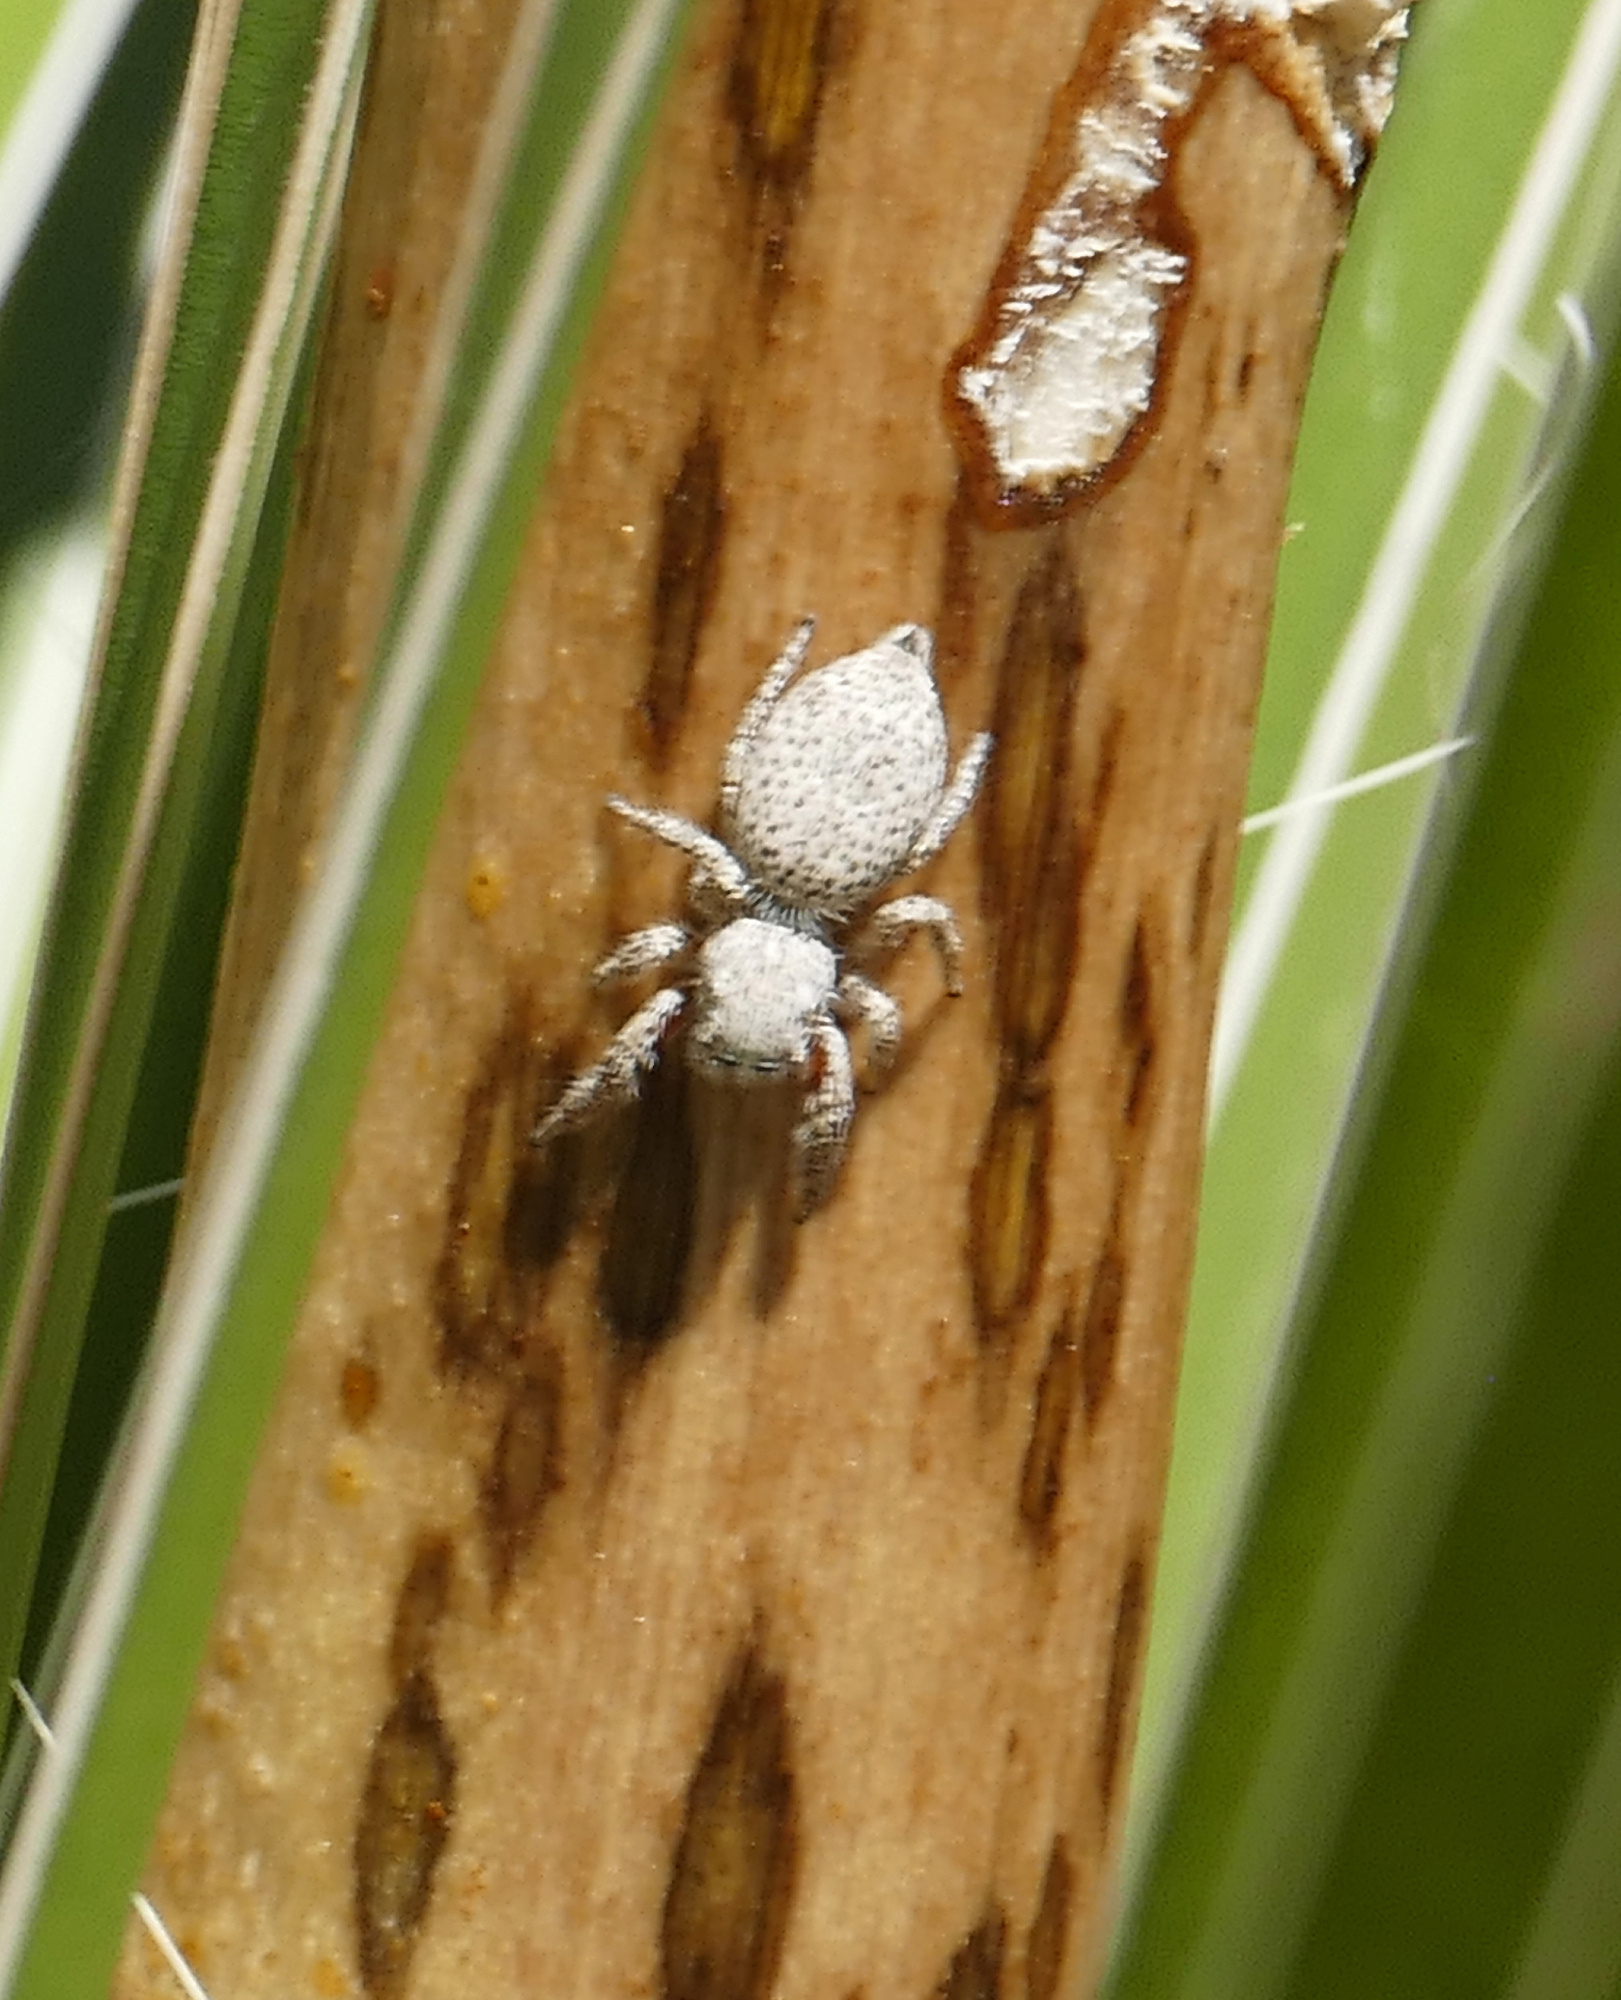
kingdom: Animalia
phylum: Arthropoda
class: Arachnida
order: Araneae
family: Salticidae
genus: Habronattus
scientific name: Habronattus tranquillus
